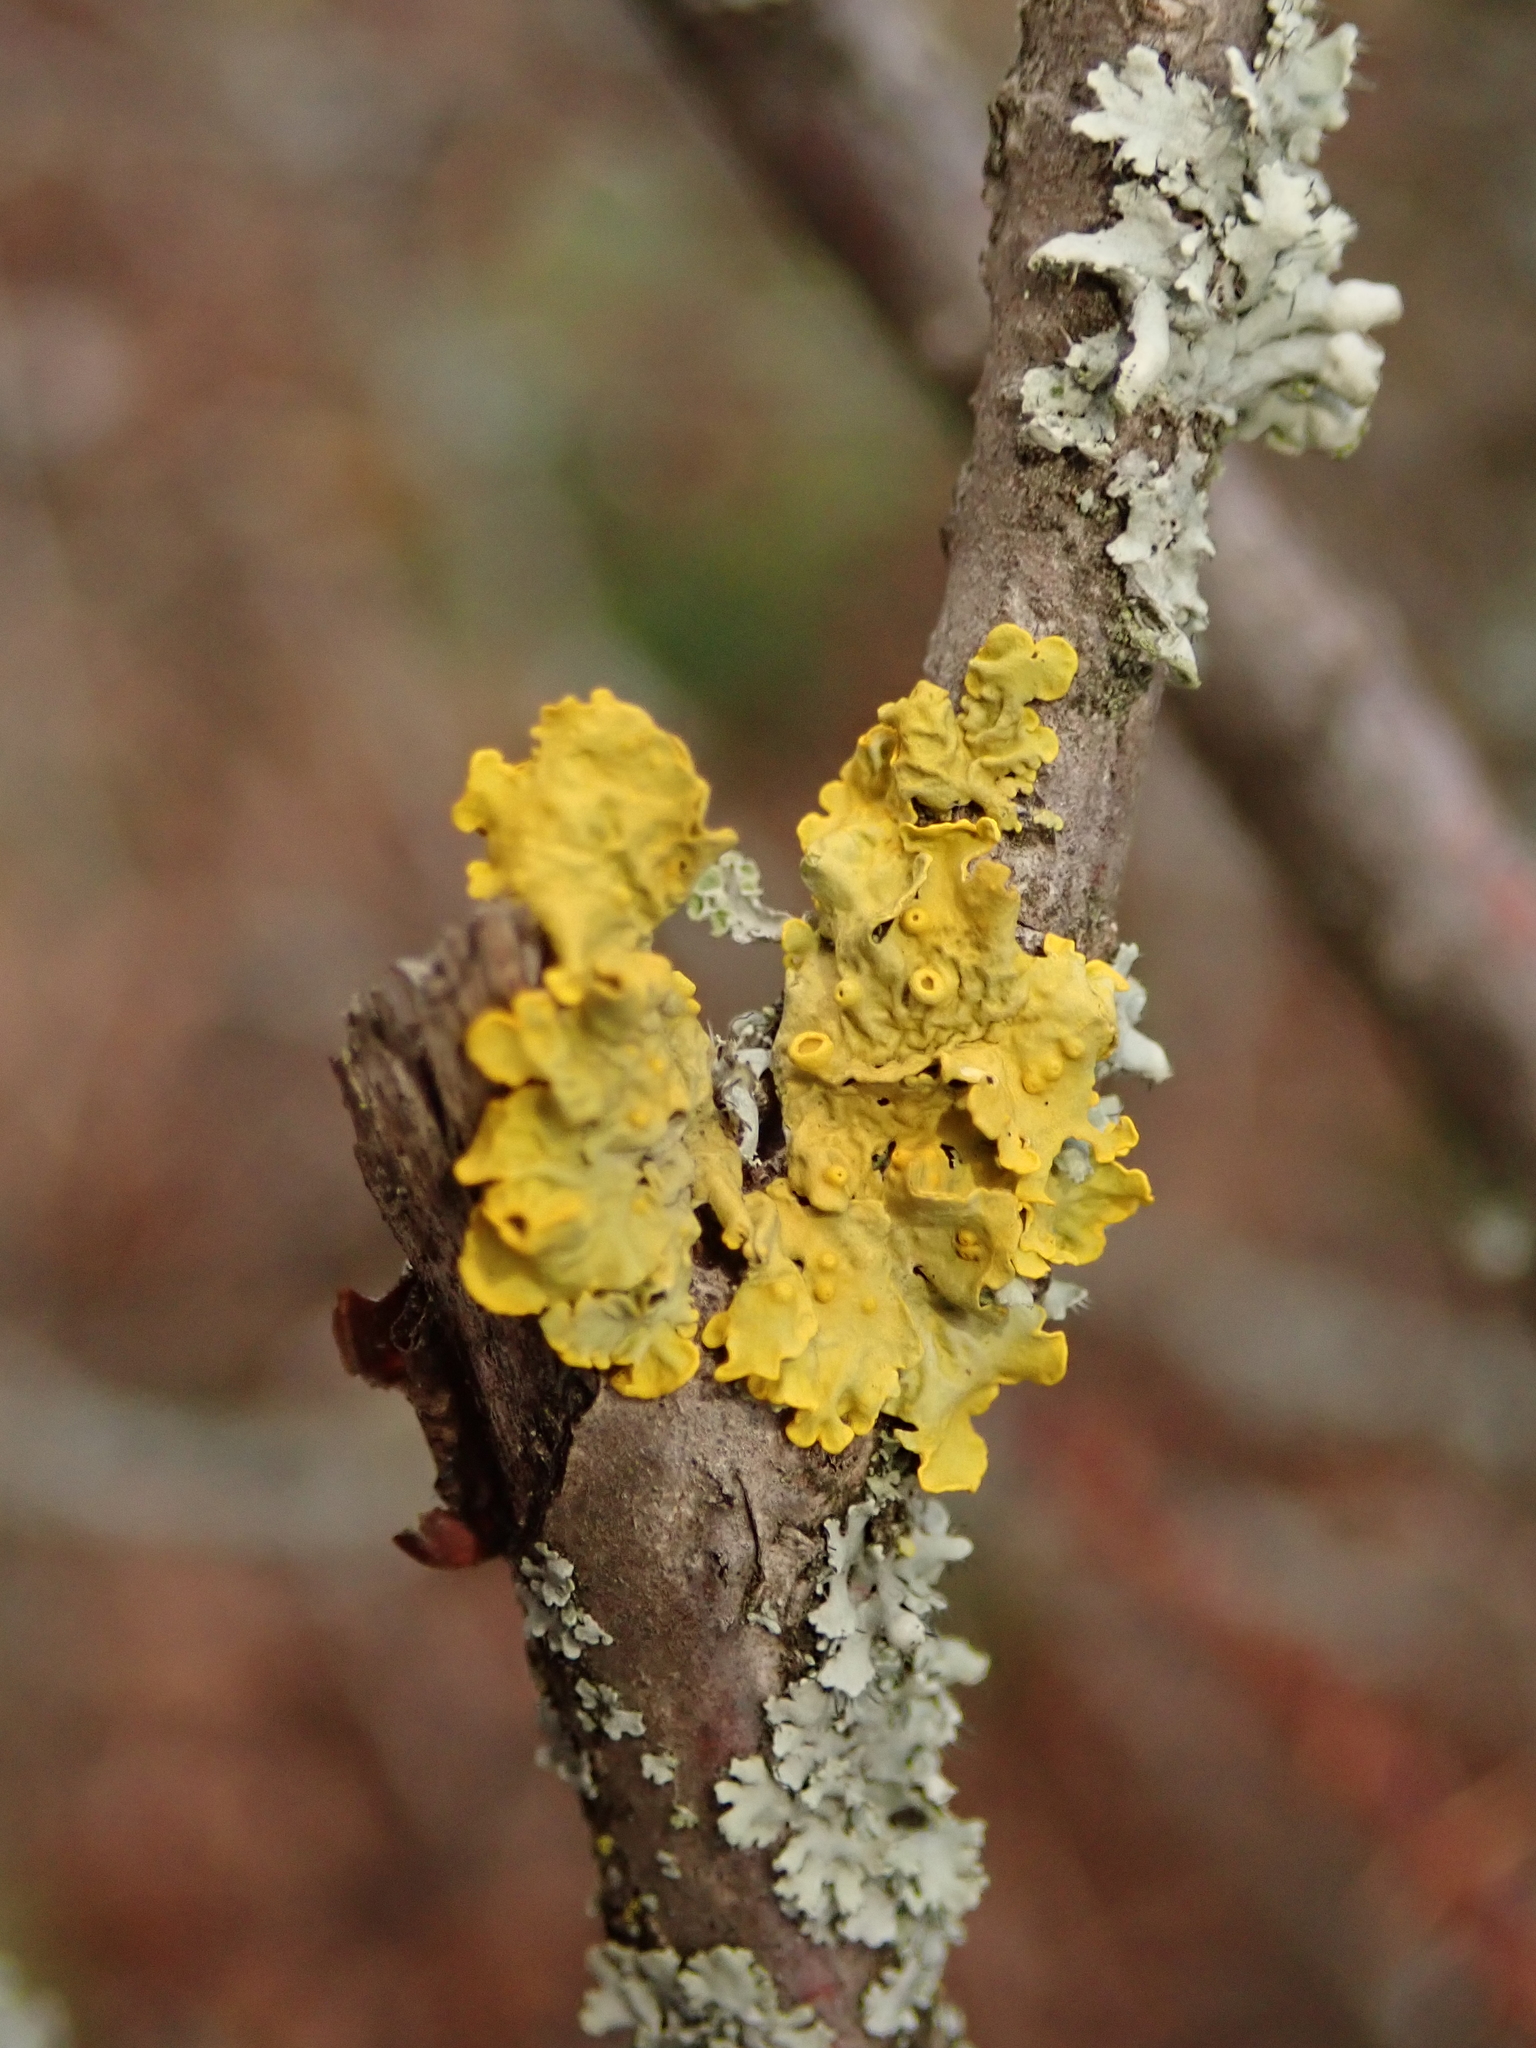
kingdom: Fungi
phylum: Ascomycota
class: Lecanoromycetes
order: Teloschistales
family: Teloschistaceae
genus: Xanthoria
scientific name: Xanthoria parietina
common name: Common orange lichen
